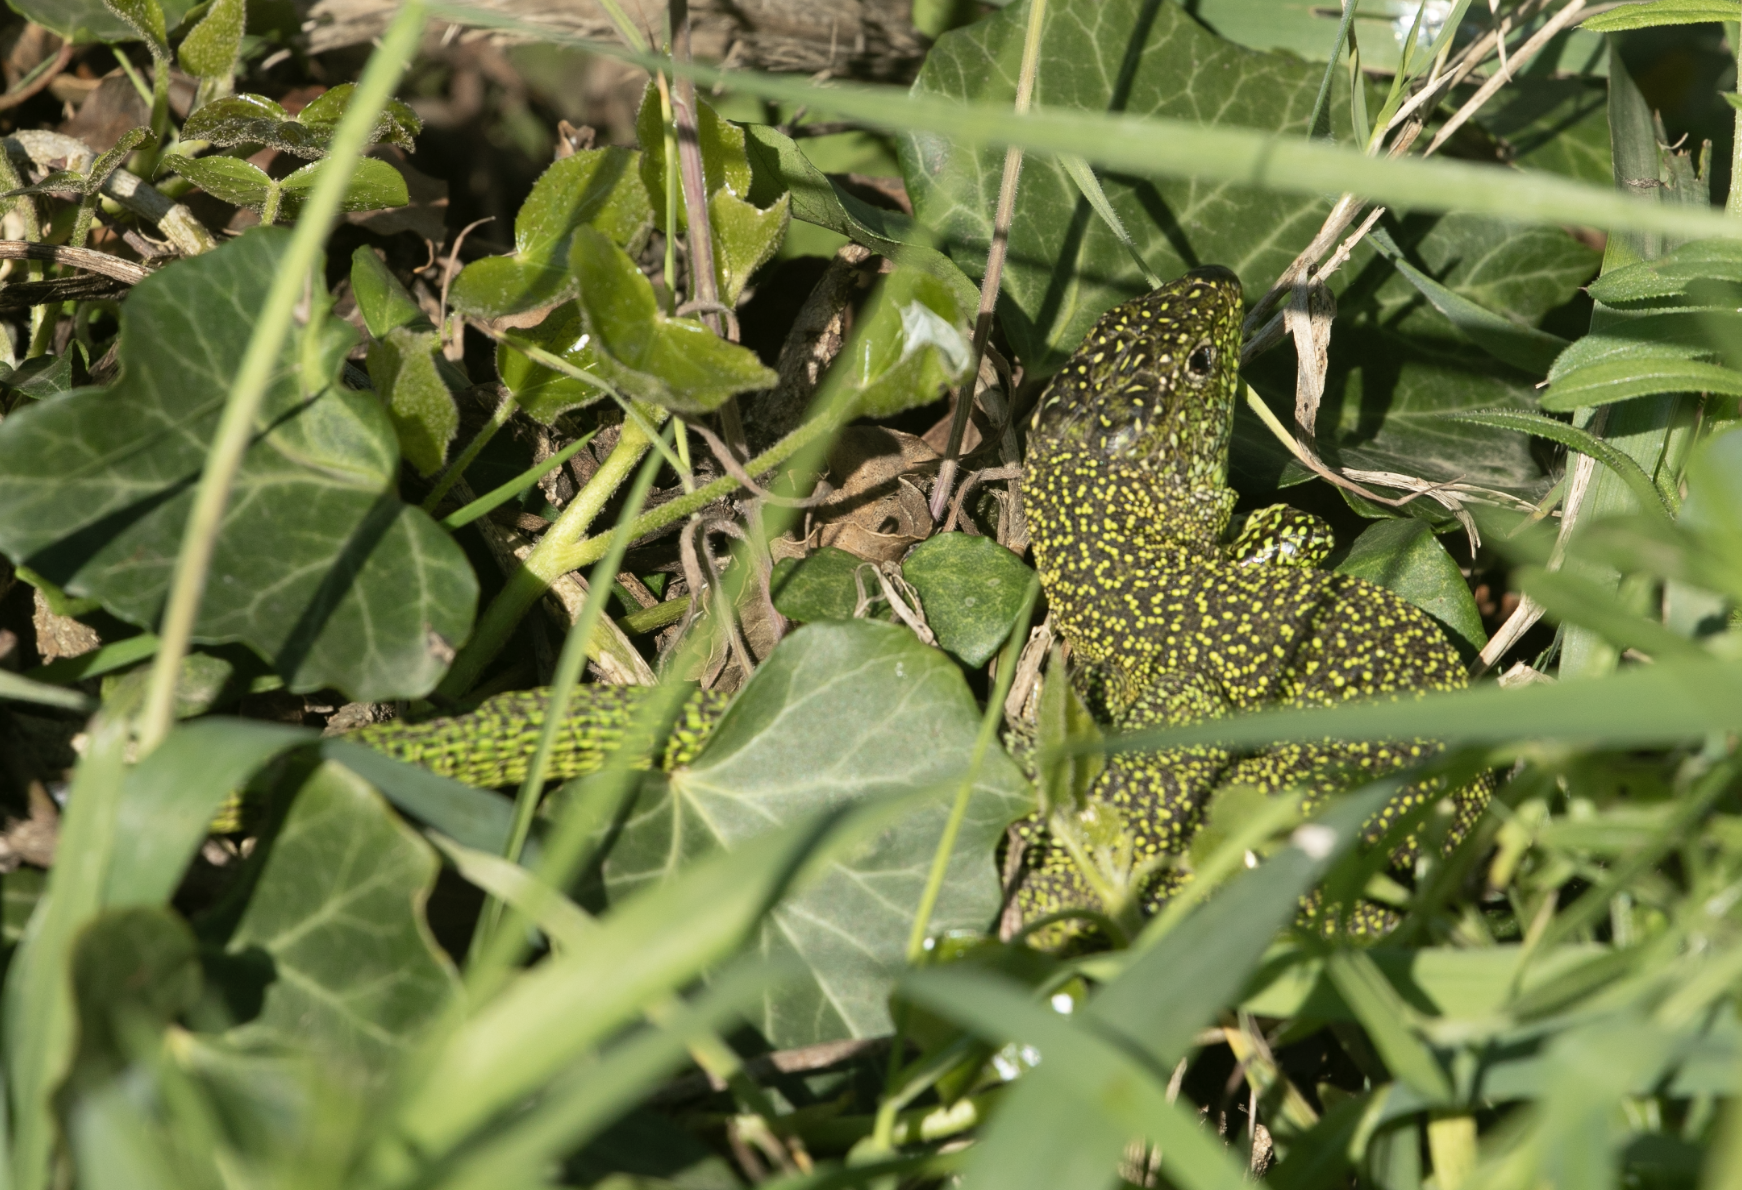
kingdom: Animalia
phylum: Chordata
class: Squamata
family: Lacertidae
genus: Lacerta
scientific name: Lacerta bilineata
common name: Western green lizard
